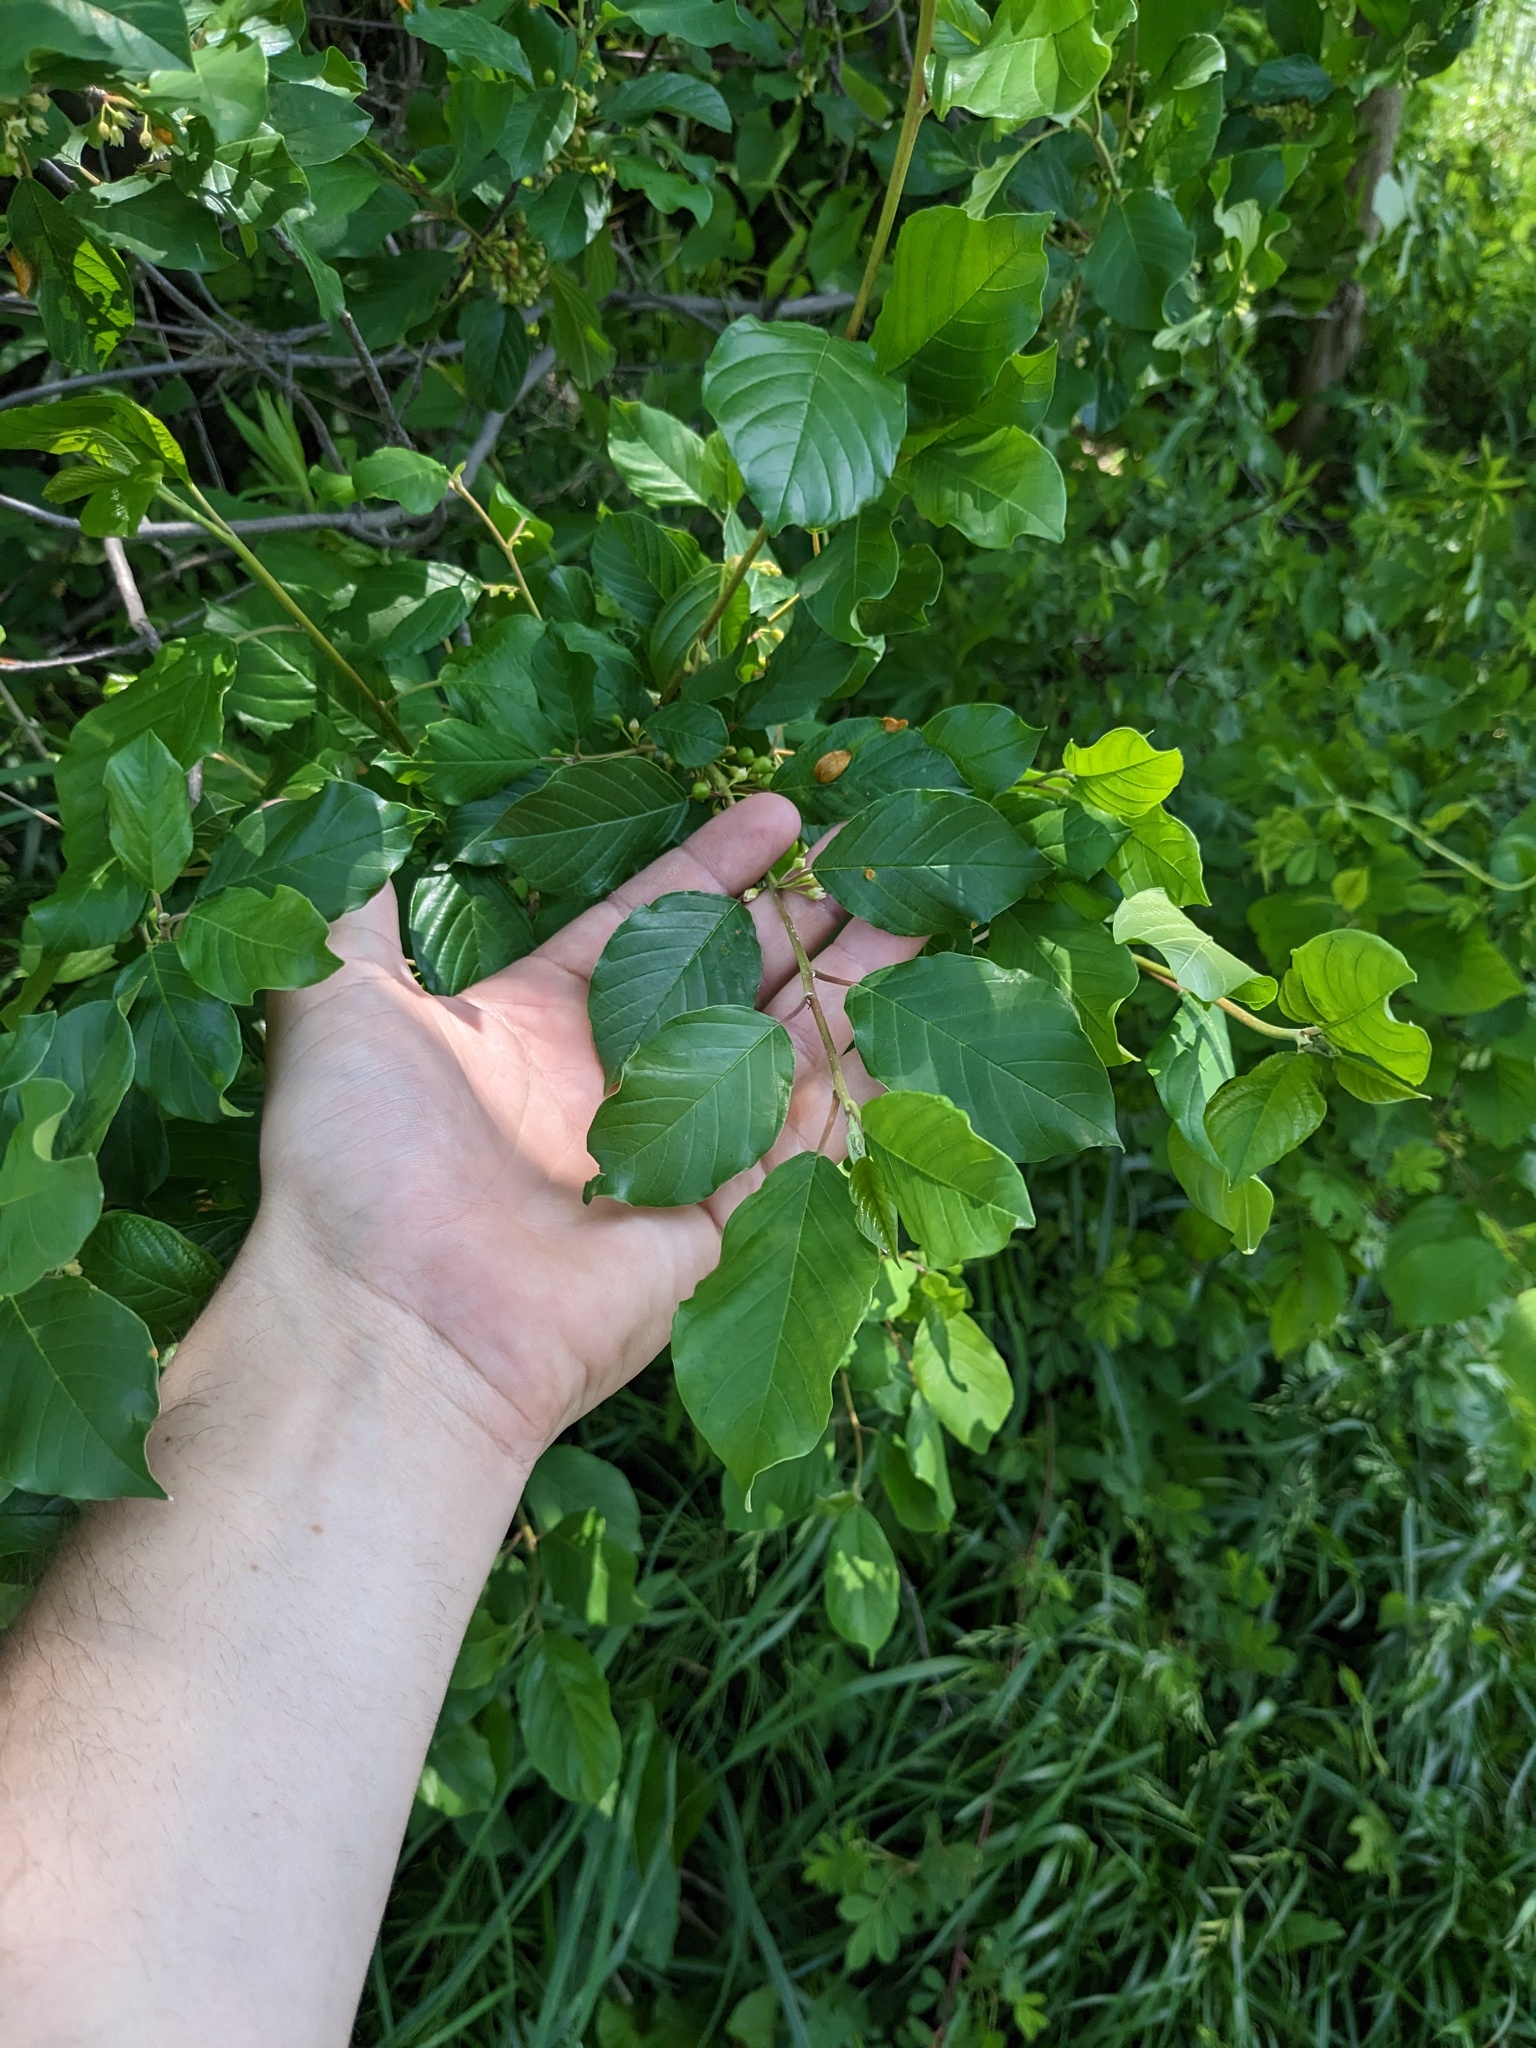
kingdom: Plantae
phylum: Tracheophyta
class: Magnoliopsida
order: Rosales
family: Rhamnaceae
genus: Frangula
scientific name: Frangula alnus
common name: Alder buckthorn
